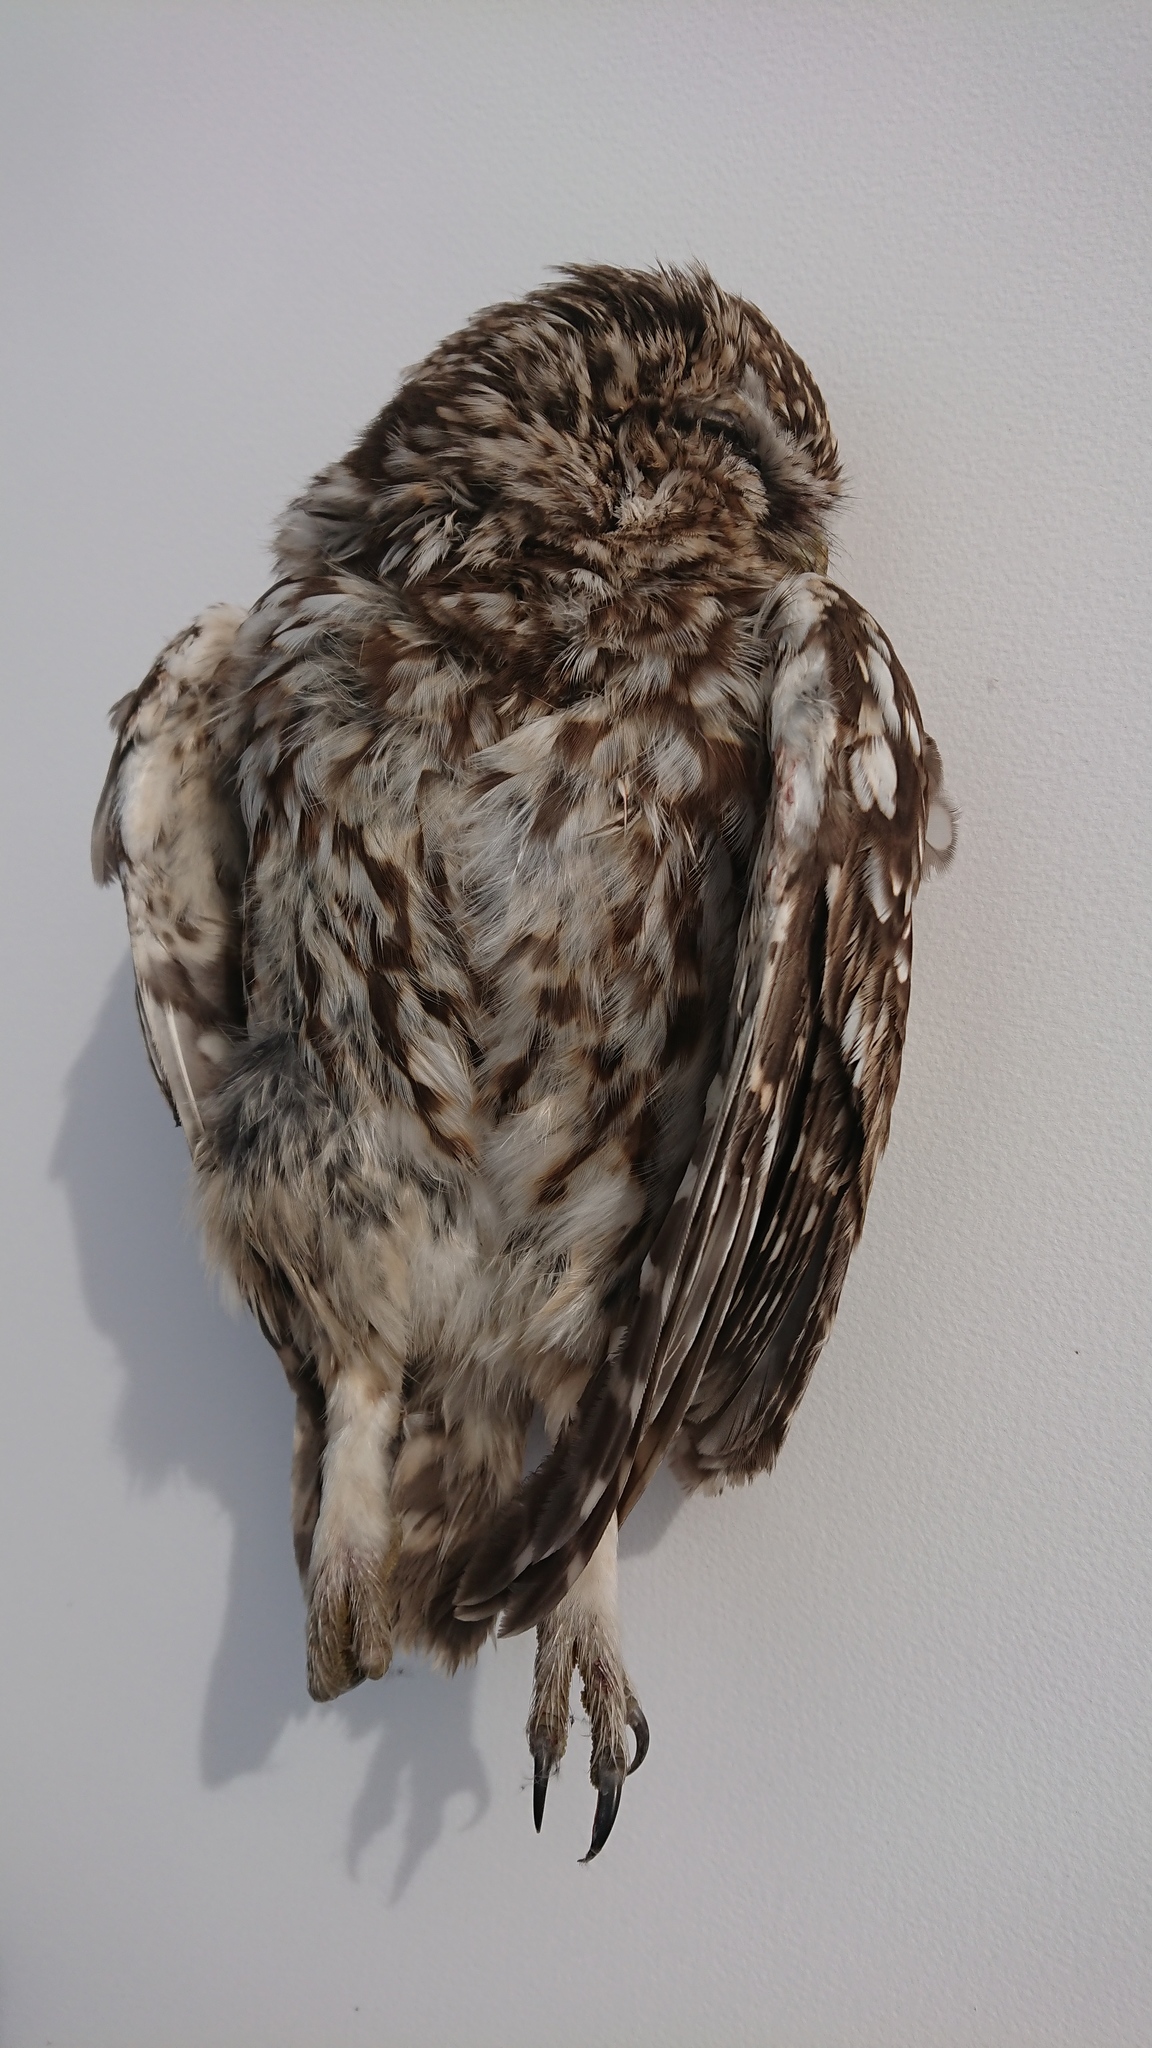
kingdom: Animalia
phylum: Chordata
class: Aves
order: Strigiformes
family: Strigidae
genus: Athene
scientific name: Athene noctua
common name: Little owl
